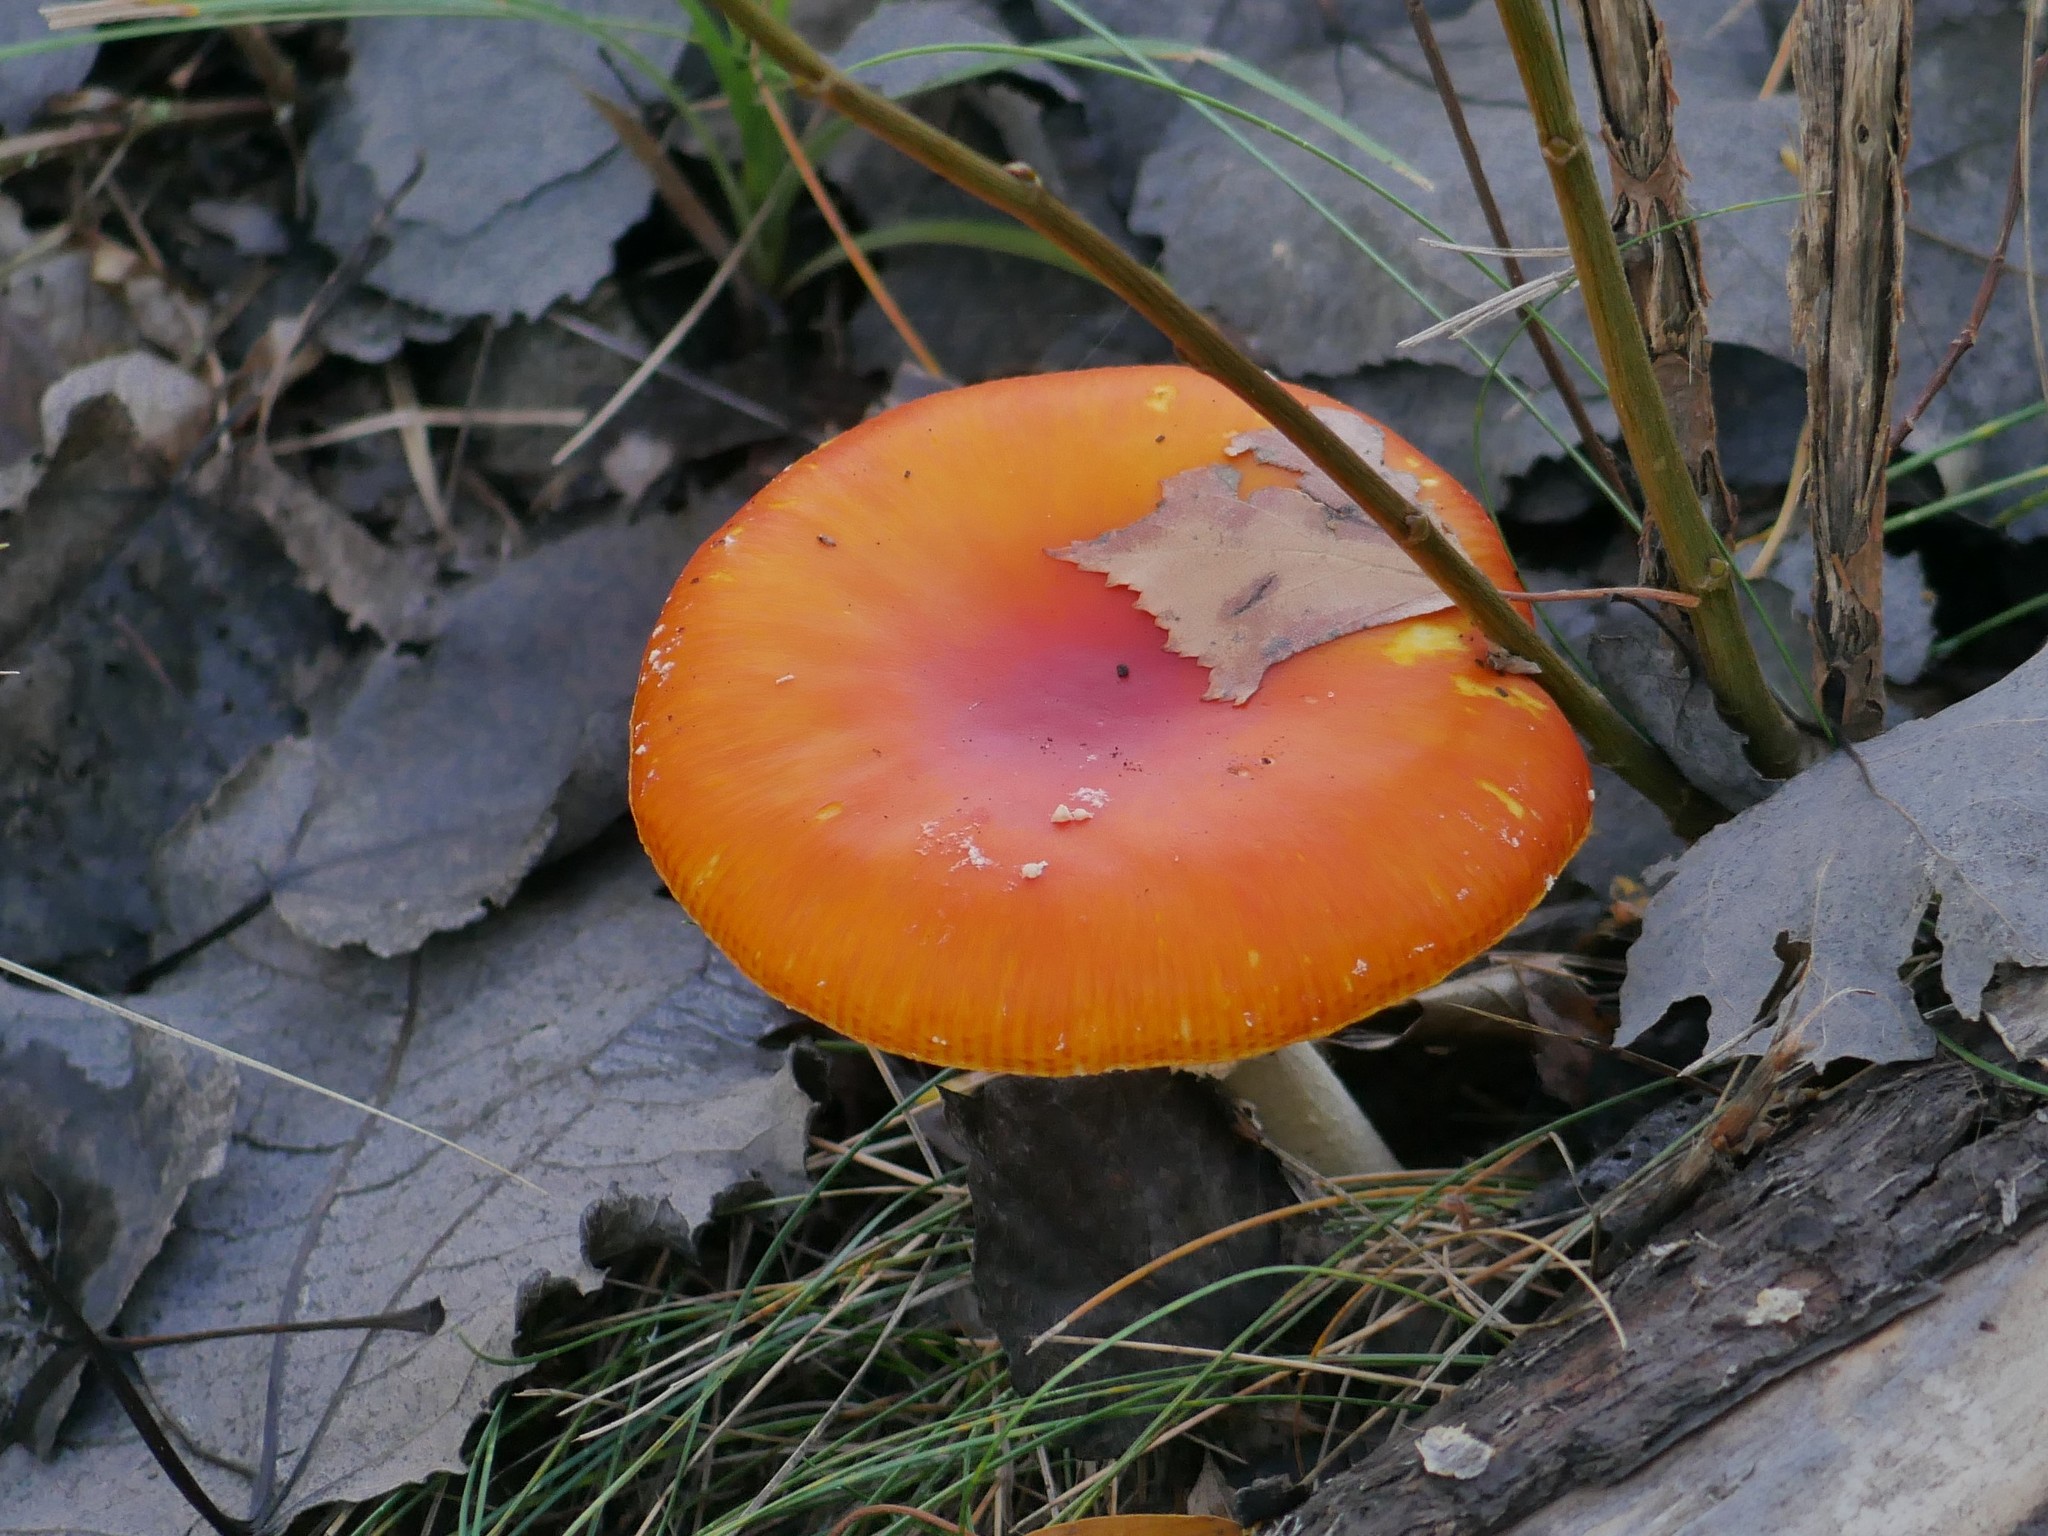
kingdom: Fungi
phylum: Basidiomycota
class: Agaricomycetes
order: Agaricales
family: Amanitaceae
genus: Amanita
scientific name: Amanita muscaria
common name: Fly agaric
